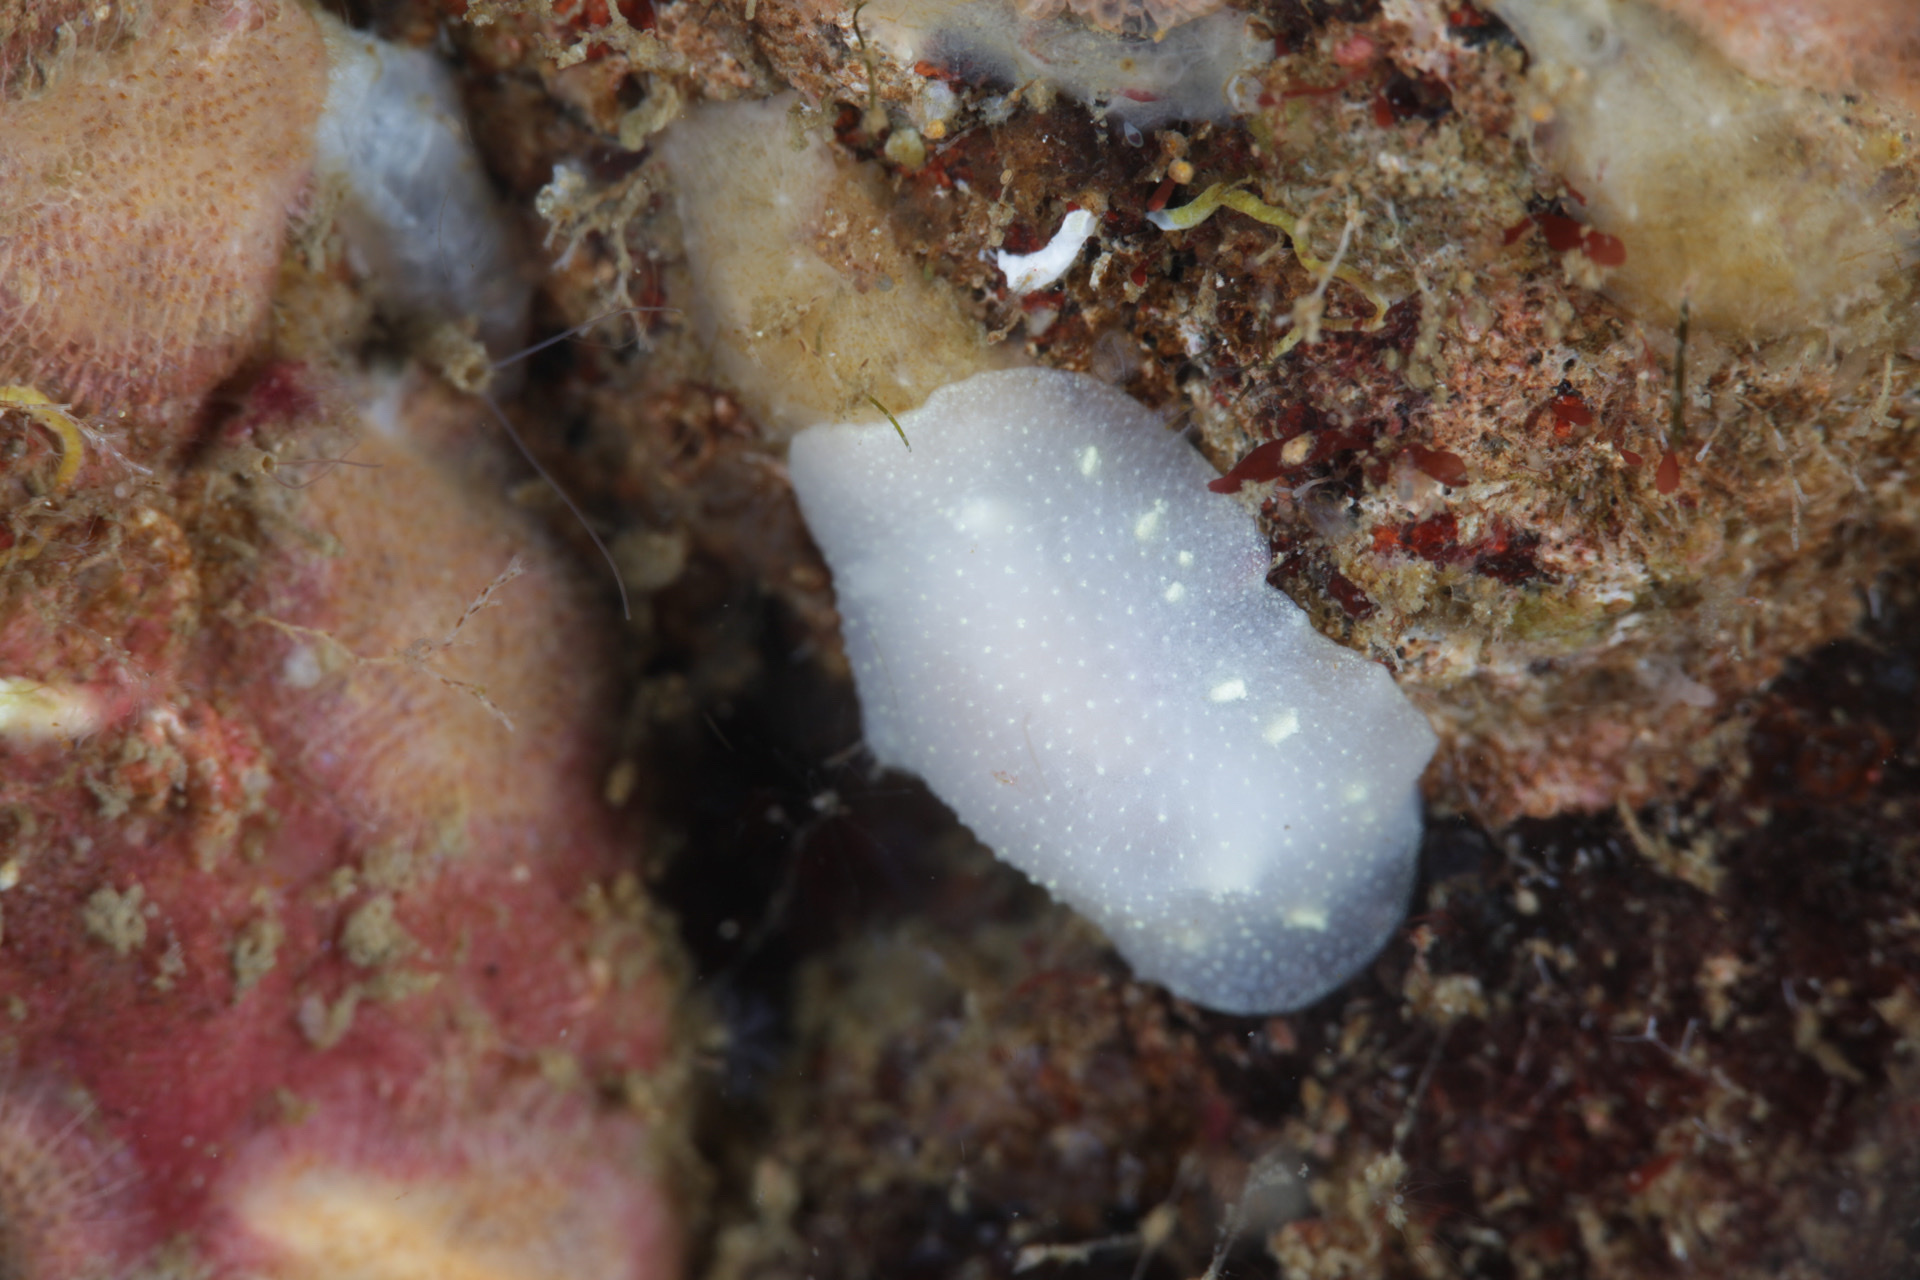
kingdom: Animalia
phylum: Mollusca
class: Gastropoda
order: Nudibranchia
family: Cadlinidae
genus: Cadlina
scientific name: Cadlina laevis
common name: White atlantic cadlina
